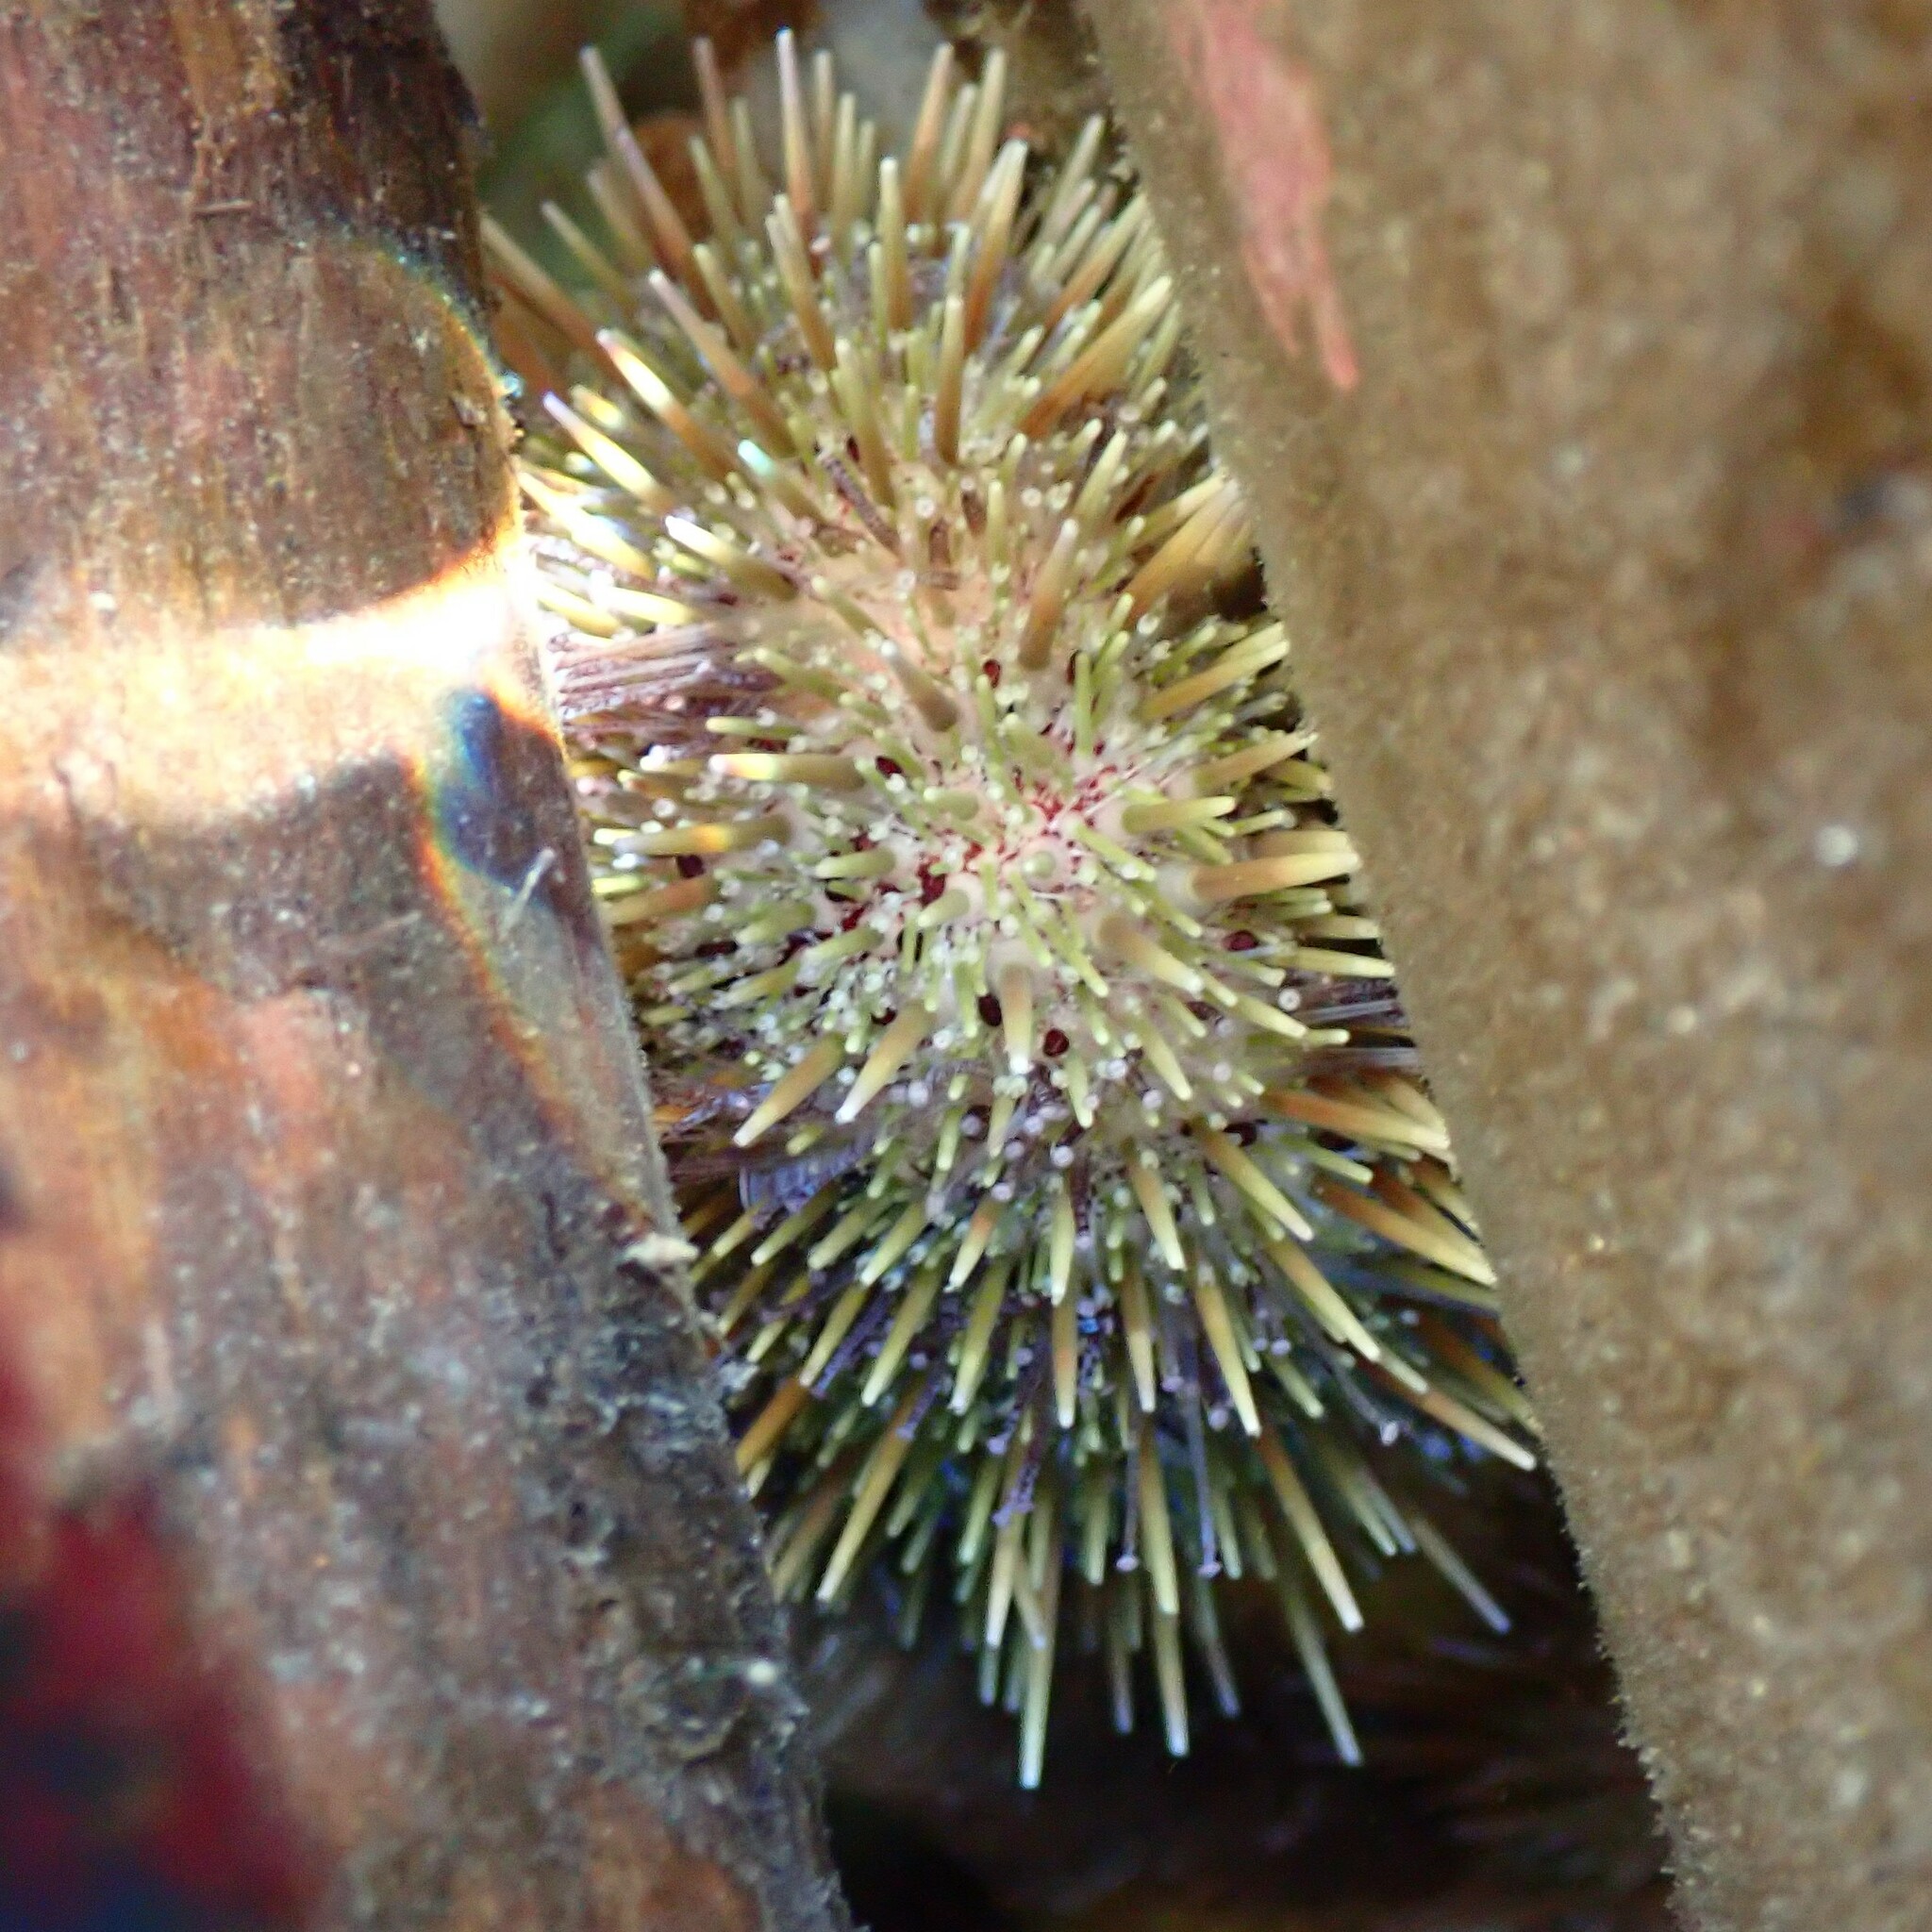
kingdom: Animalia
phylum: Echinodermata
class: Echinoidea
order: Camarodonta
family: Strongylocentrotidae
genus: Strongylocentrotus
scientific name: Strongylocentrotus droebachiensis
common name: Northern sea urchin
